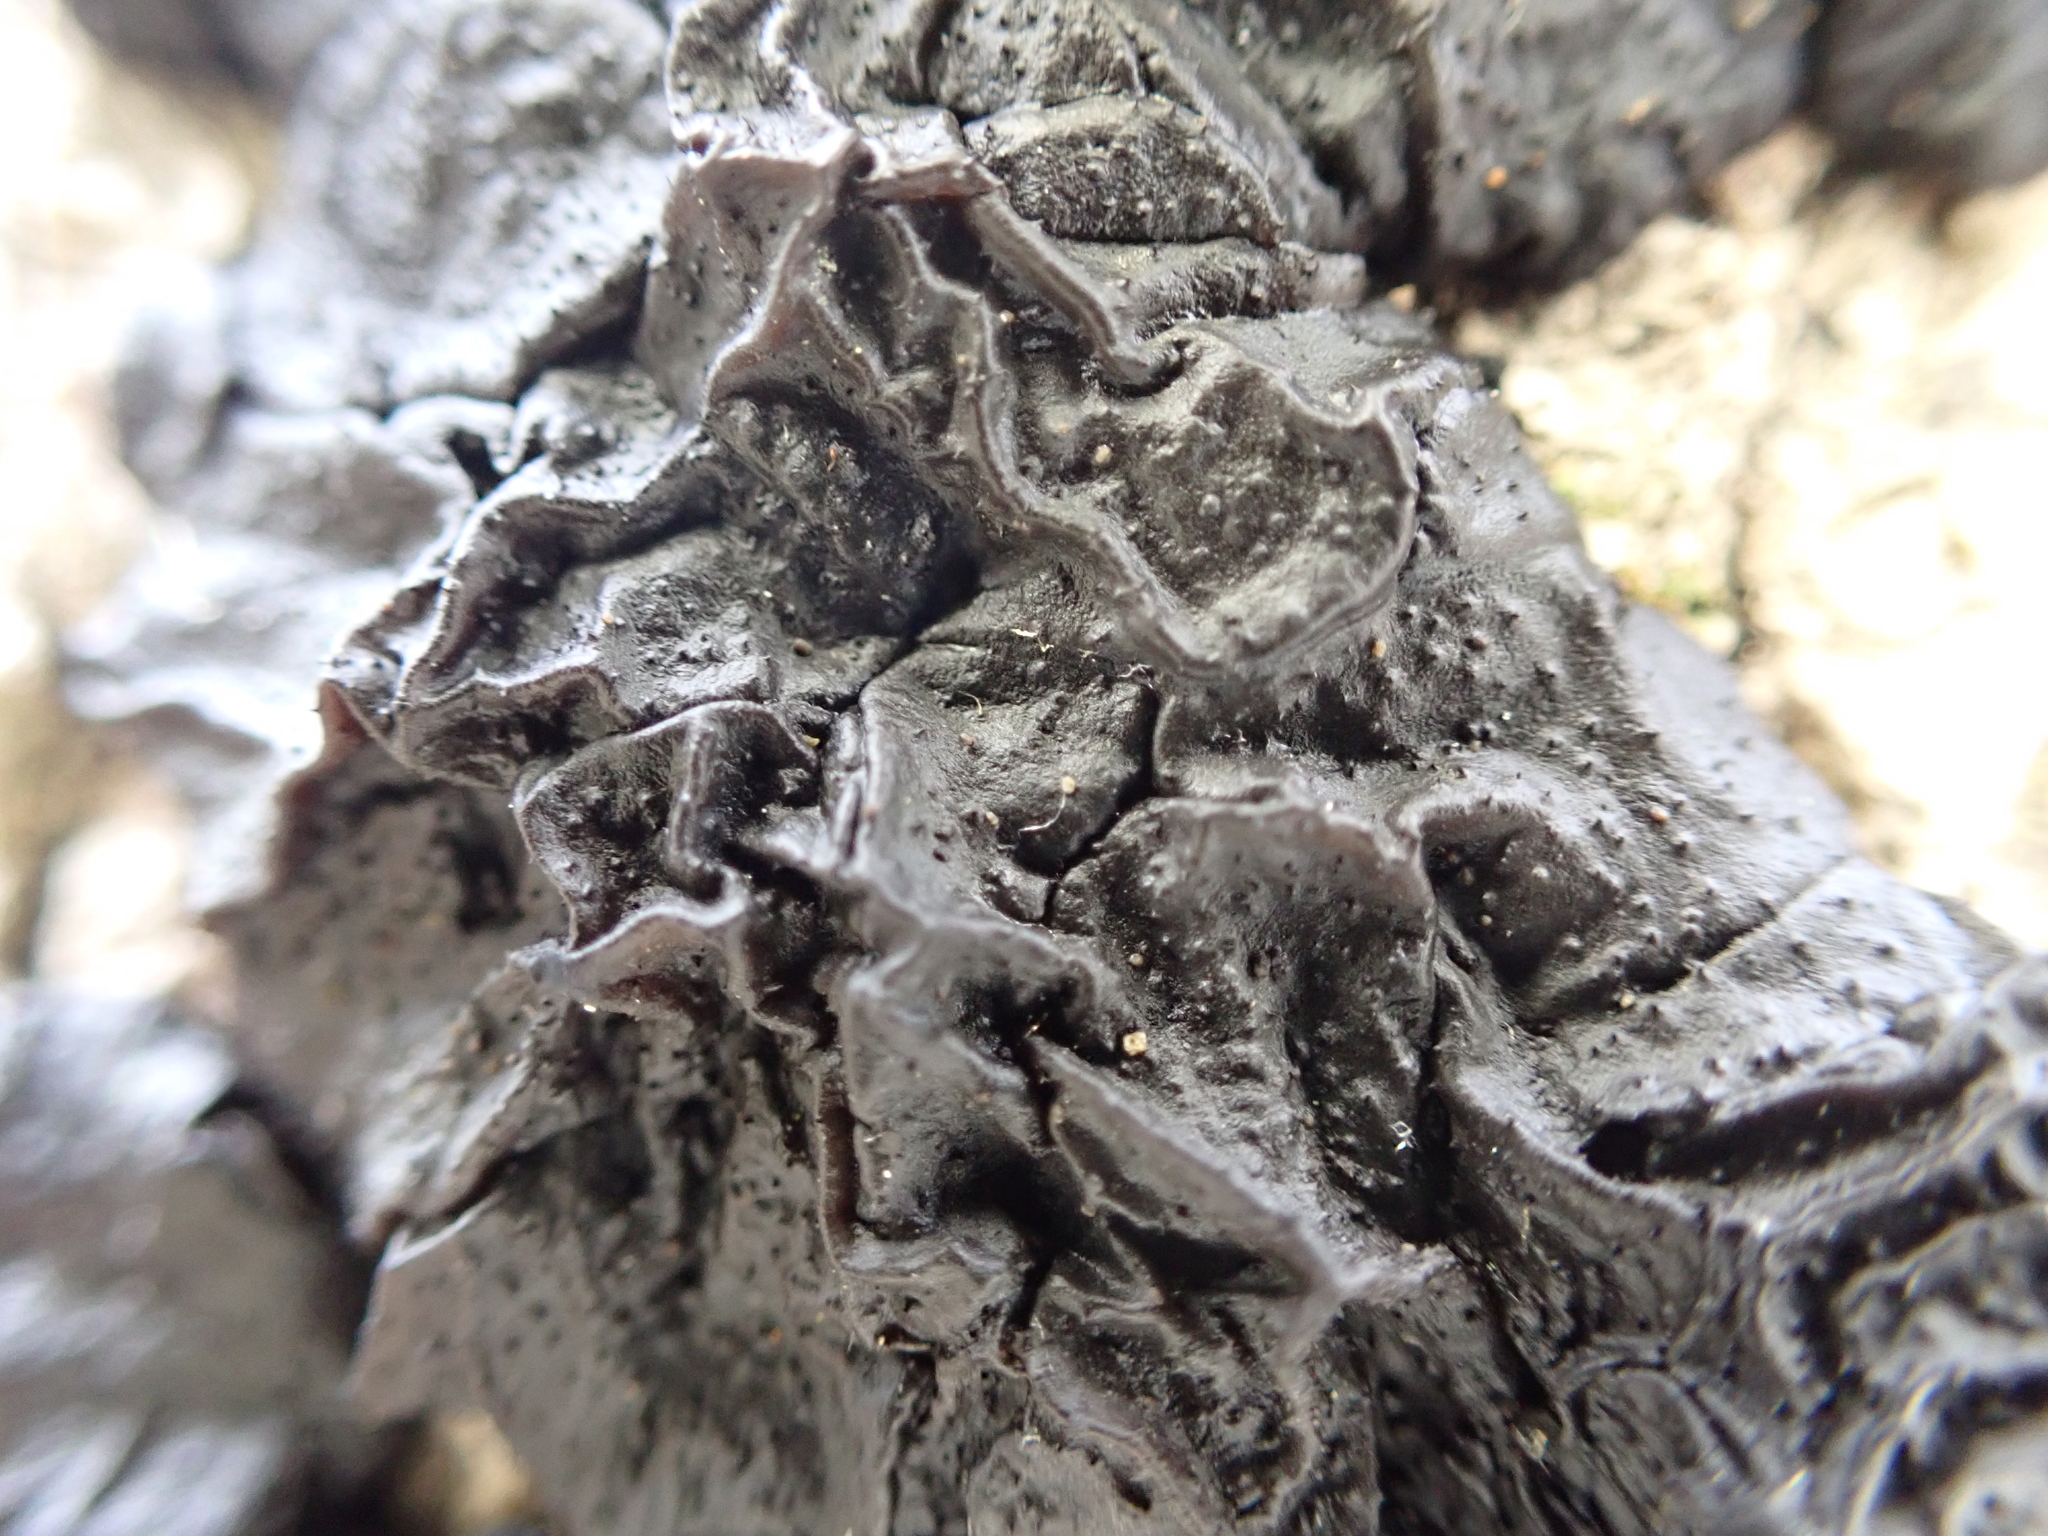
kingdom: Fungi
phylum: Basidiomycota
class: Agaricomycetes
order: Auriculariales
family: Auriculariaceae
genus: Exidia
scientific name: Exidia glandulosa
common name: Witches' butter
